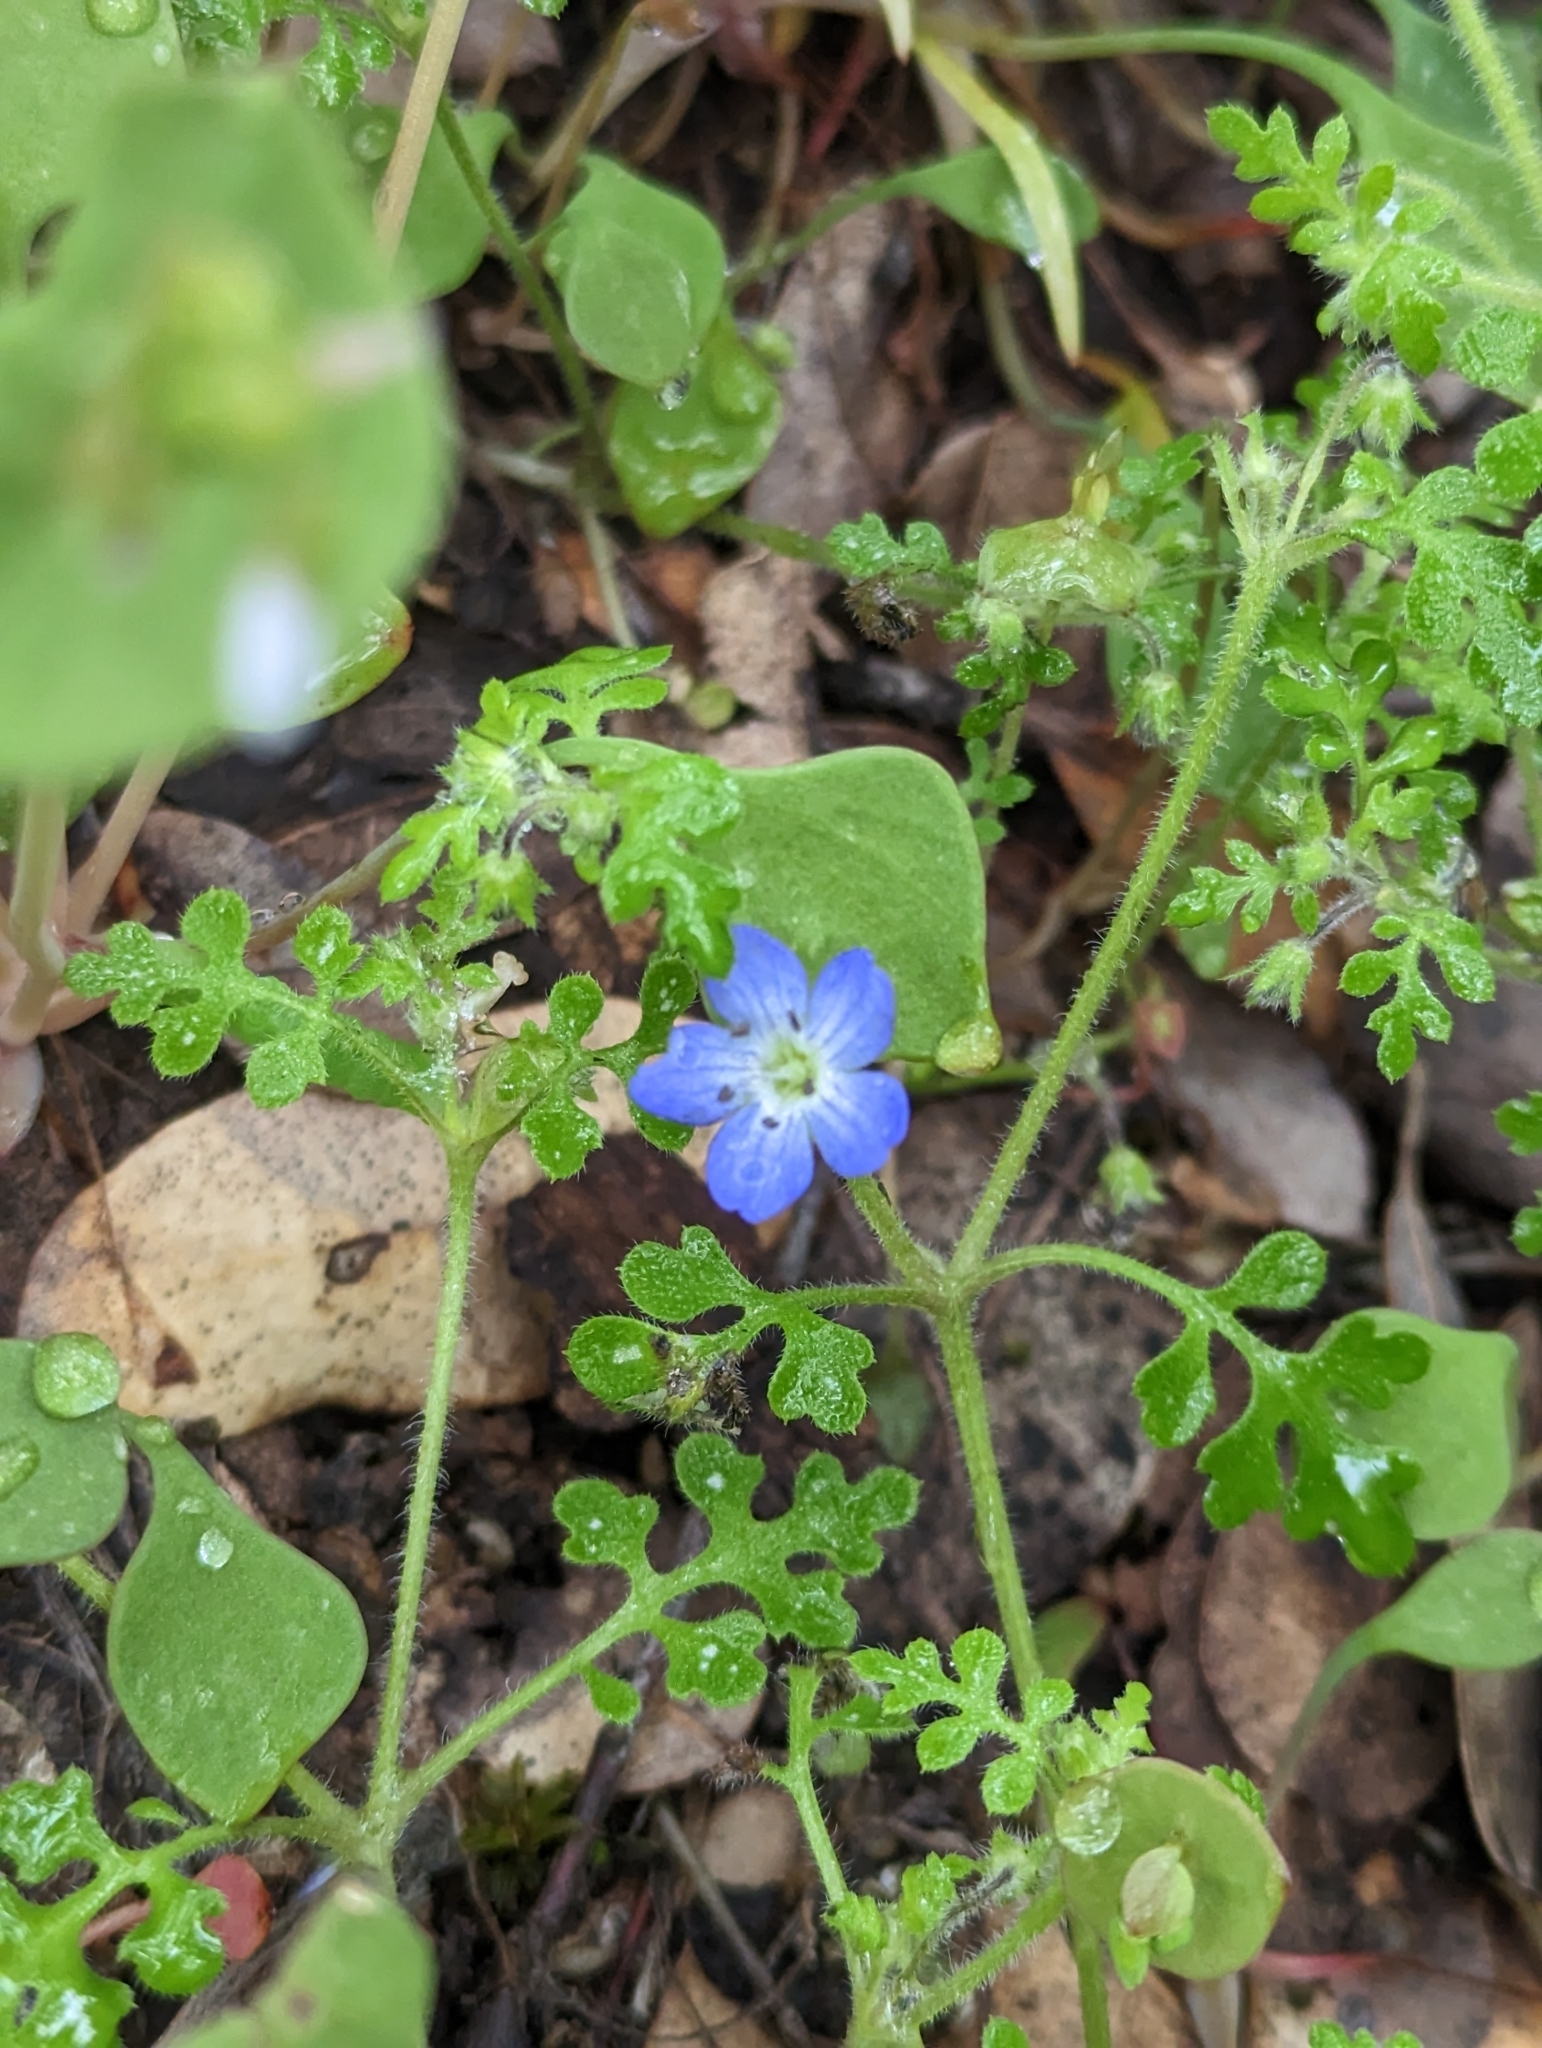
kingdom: Plantae
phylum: Tracheophyta
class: Magnoliopsida
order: Boraginales
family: Hydrophyllaceae
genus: Nemophila
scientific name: Nemophila menziesii
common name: Baby's-blue-eyes
